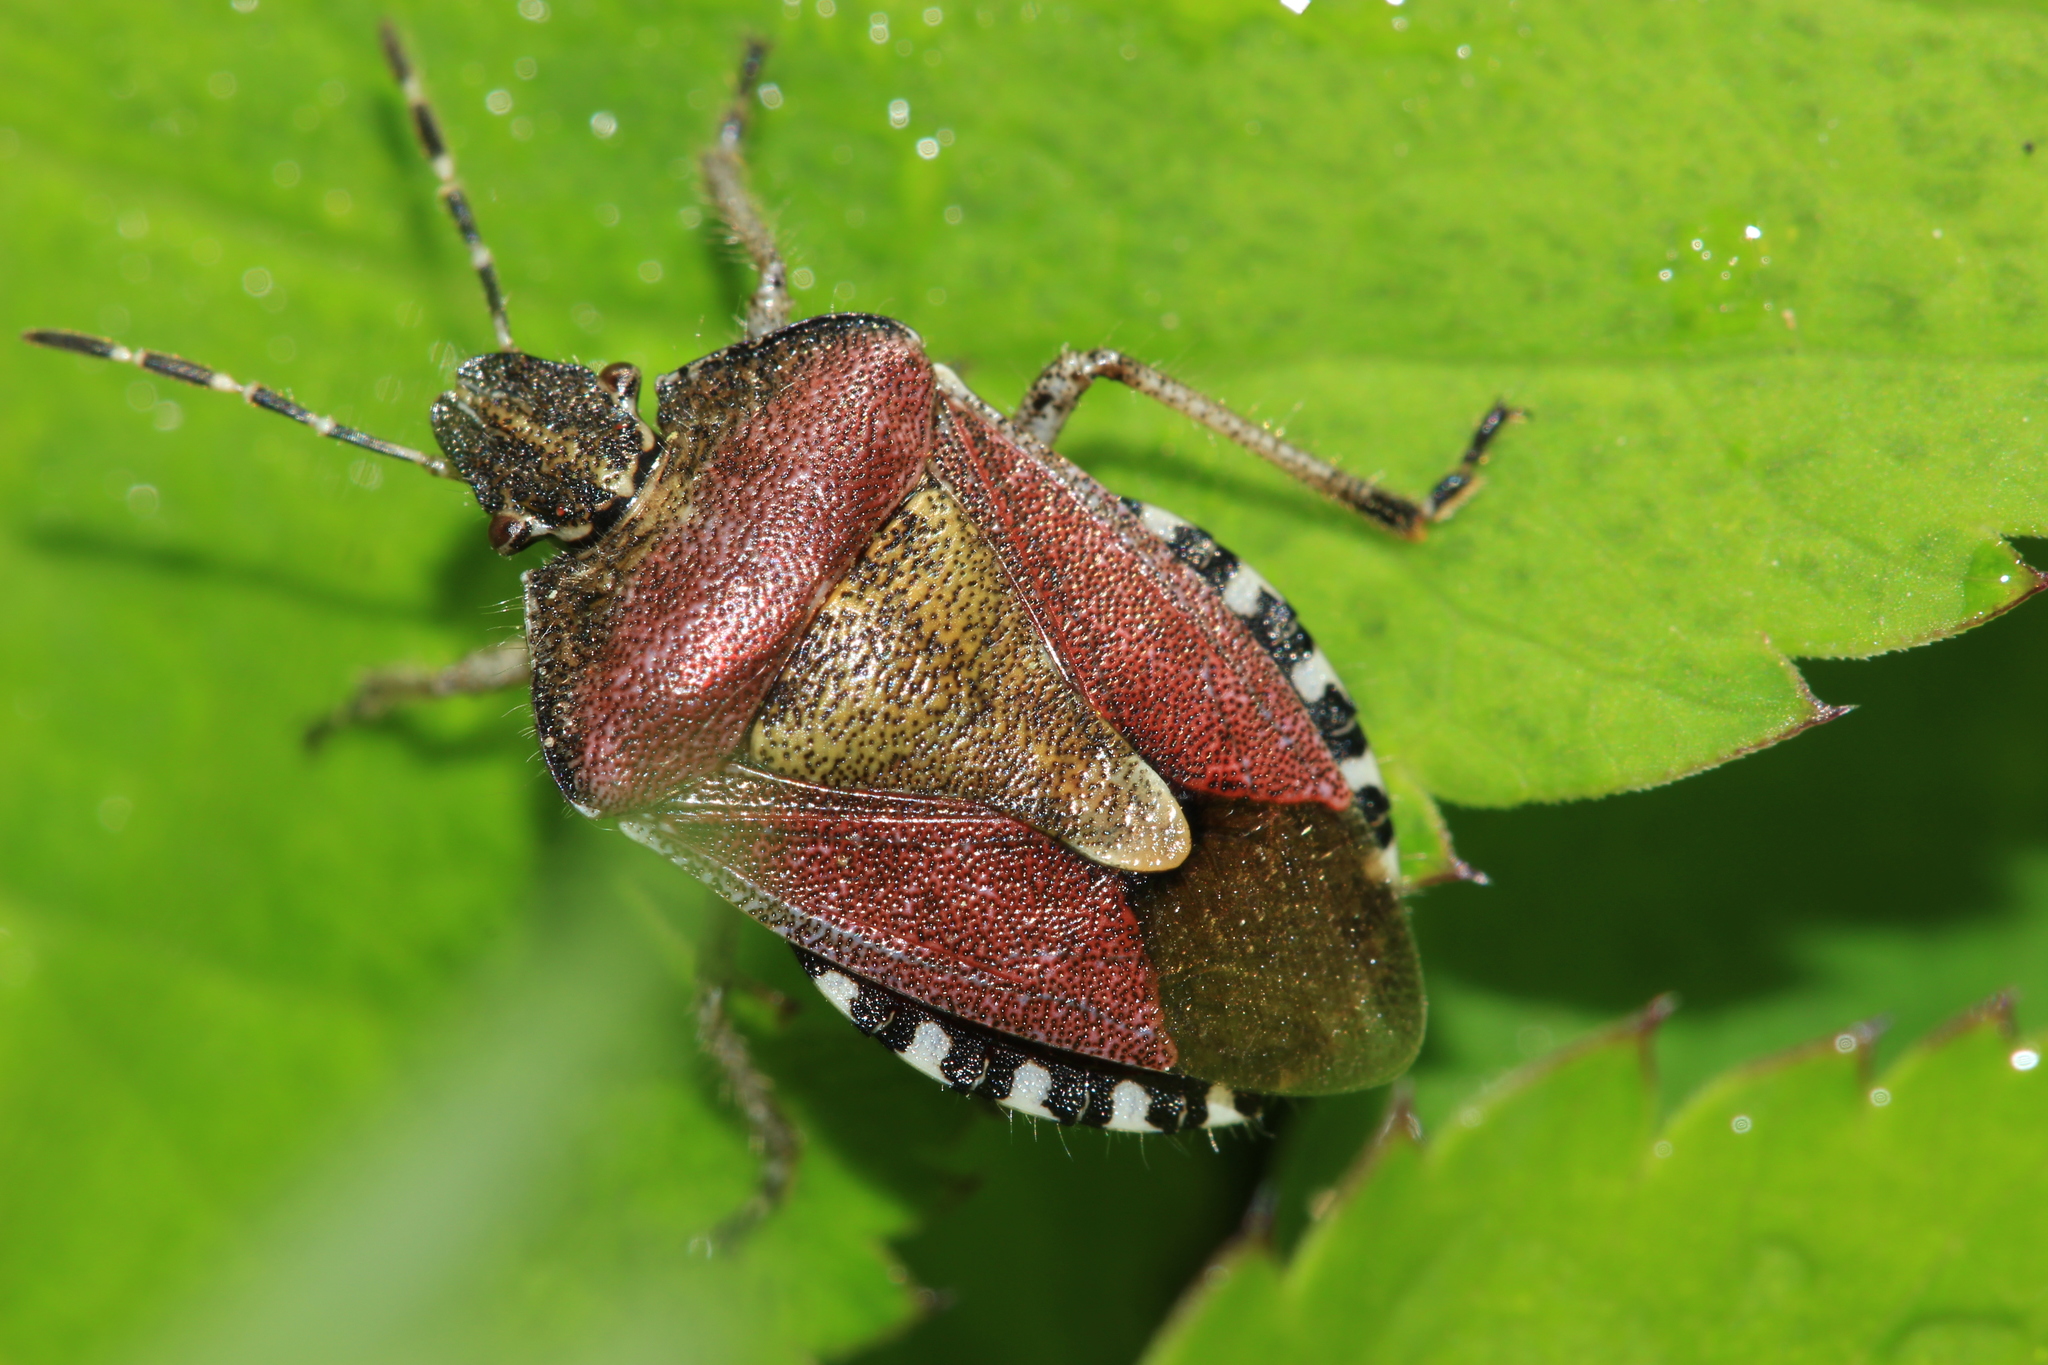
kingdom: Animalia
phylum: Arthropoda
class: Insecta
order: Hemiptera
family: Pentatomidae
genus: Dolycoris
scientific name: Dolycoris baccarum
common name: Sloe bug
